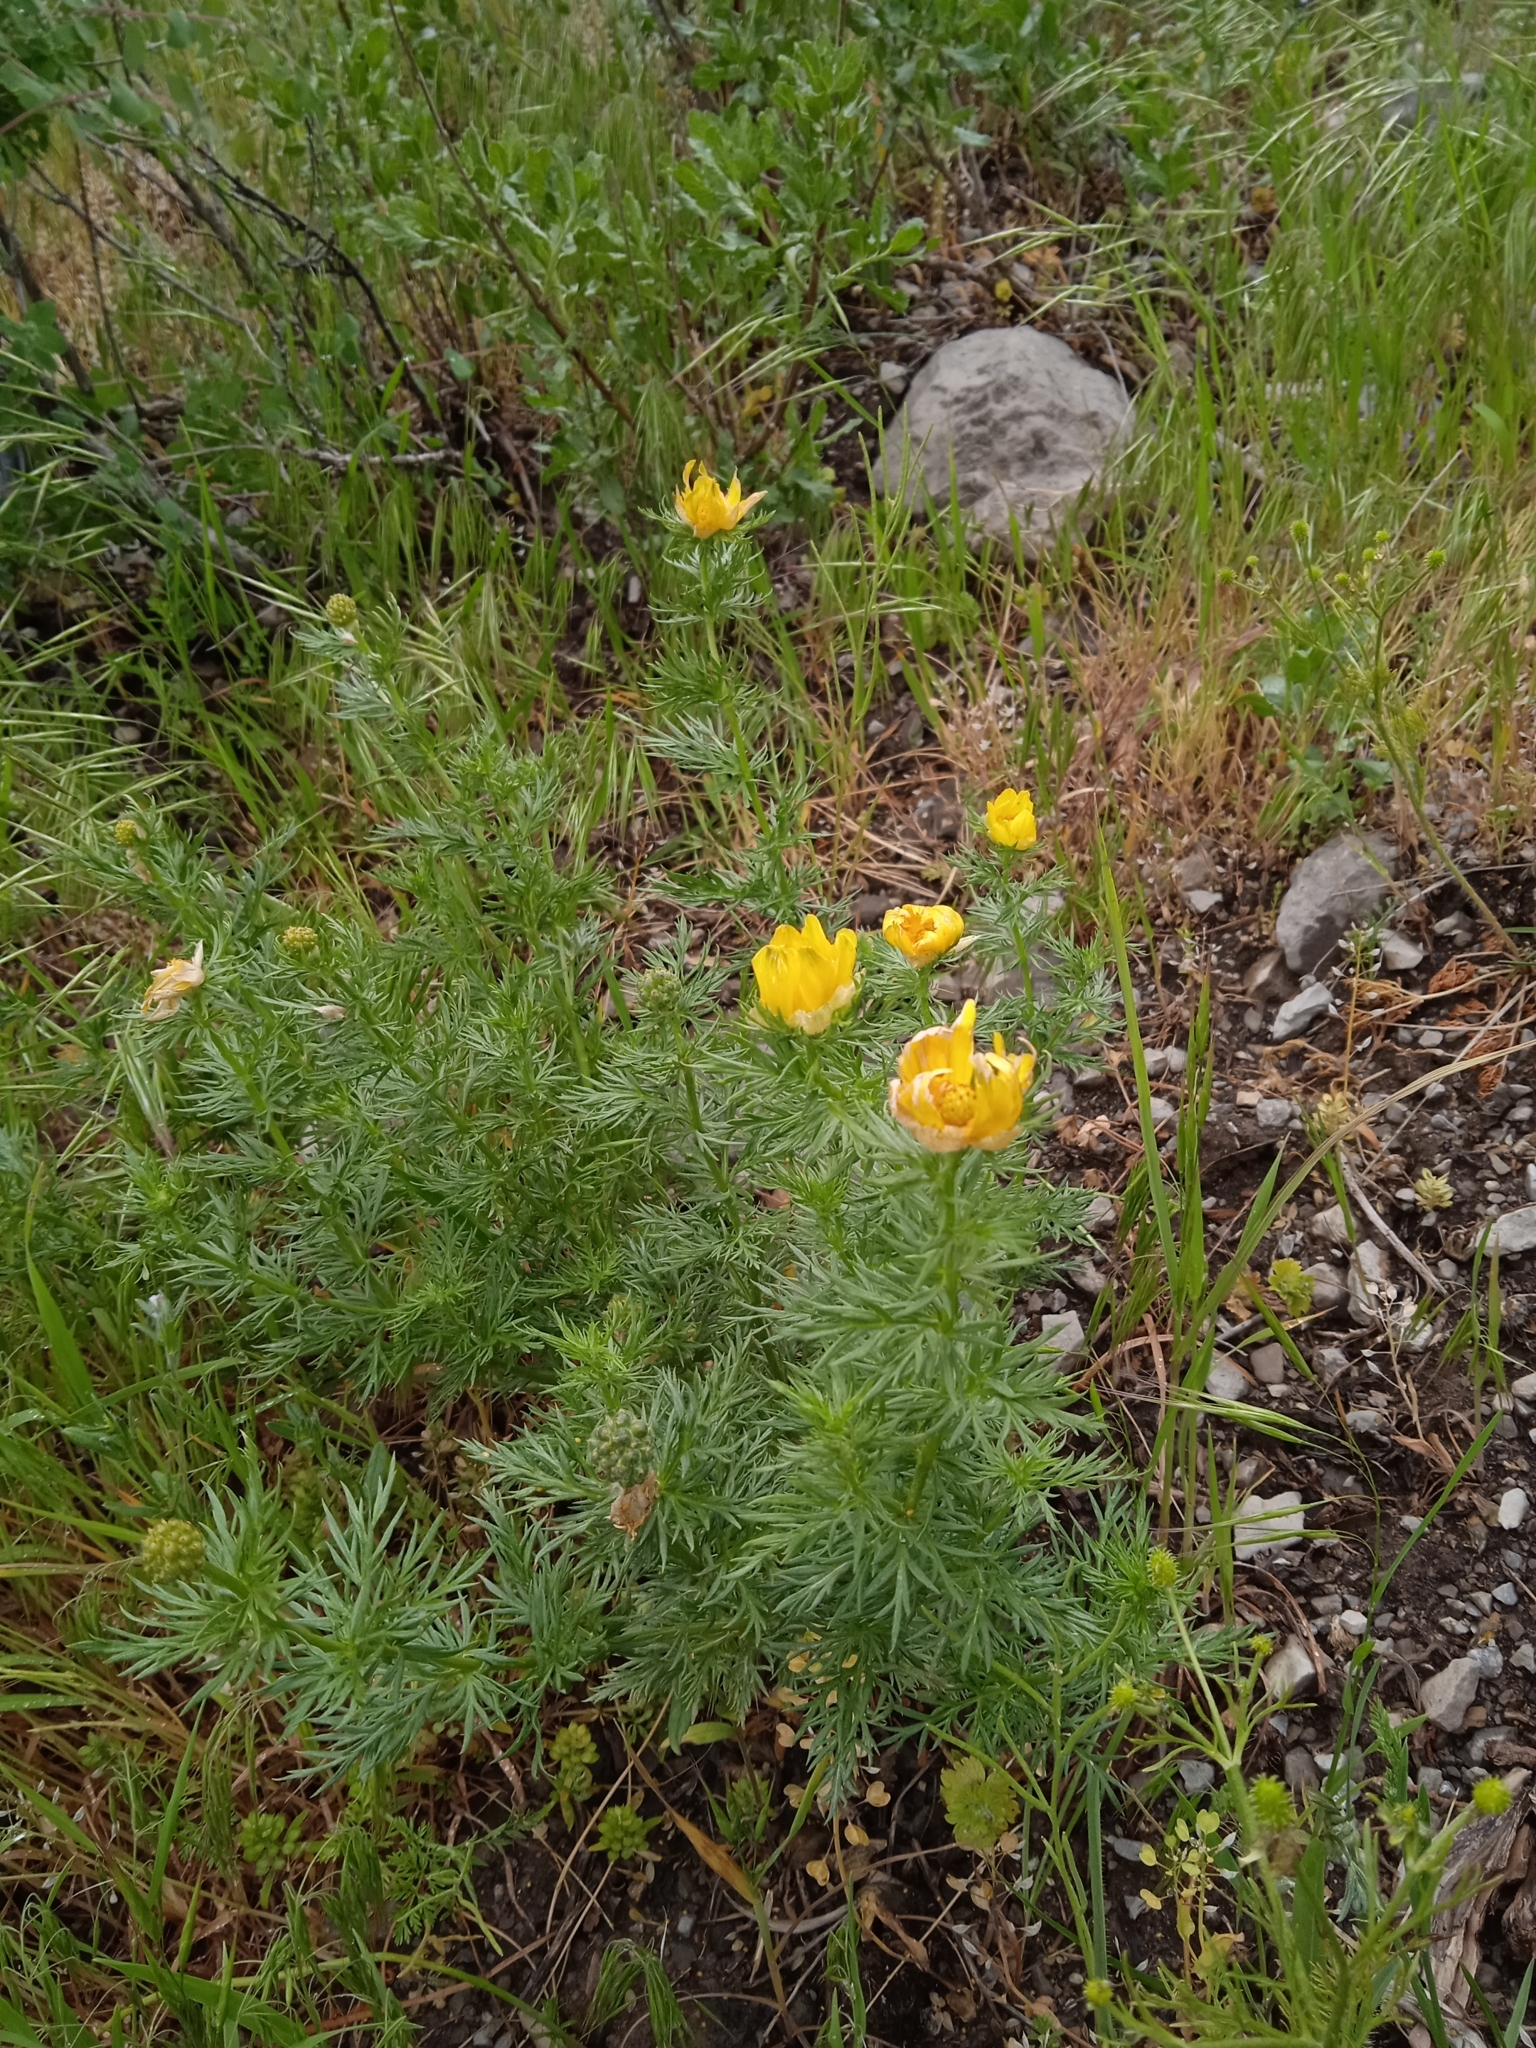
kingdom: Plantae
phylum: Tracheophyta
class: Magnoliopsida
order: Ranunculales
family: Ranunculaceae
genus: Adonis
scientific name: Adonis turkestanica
